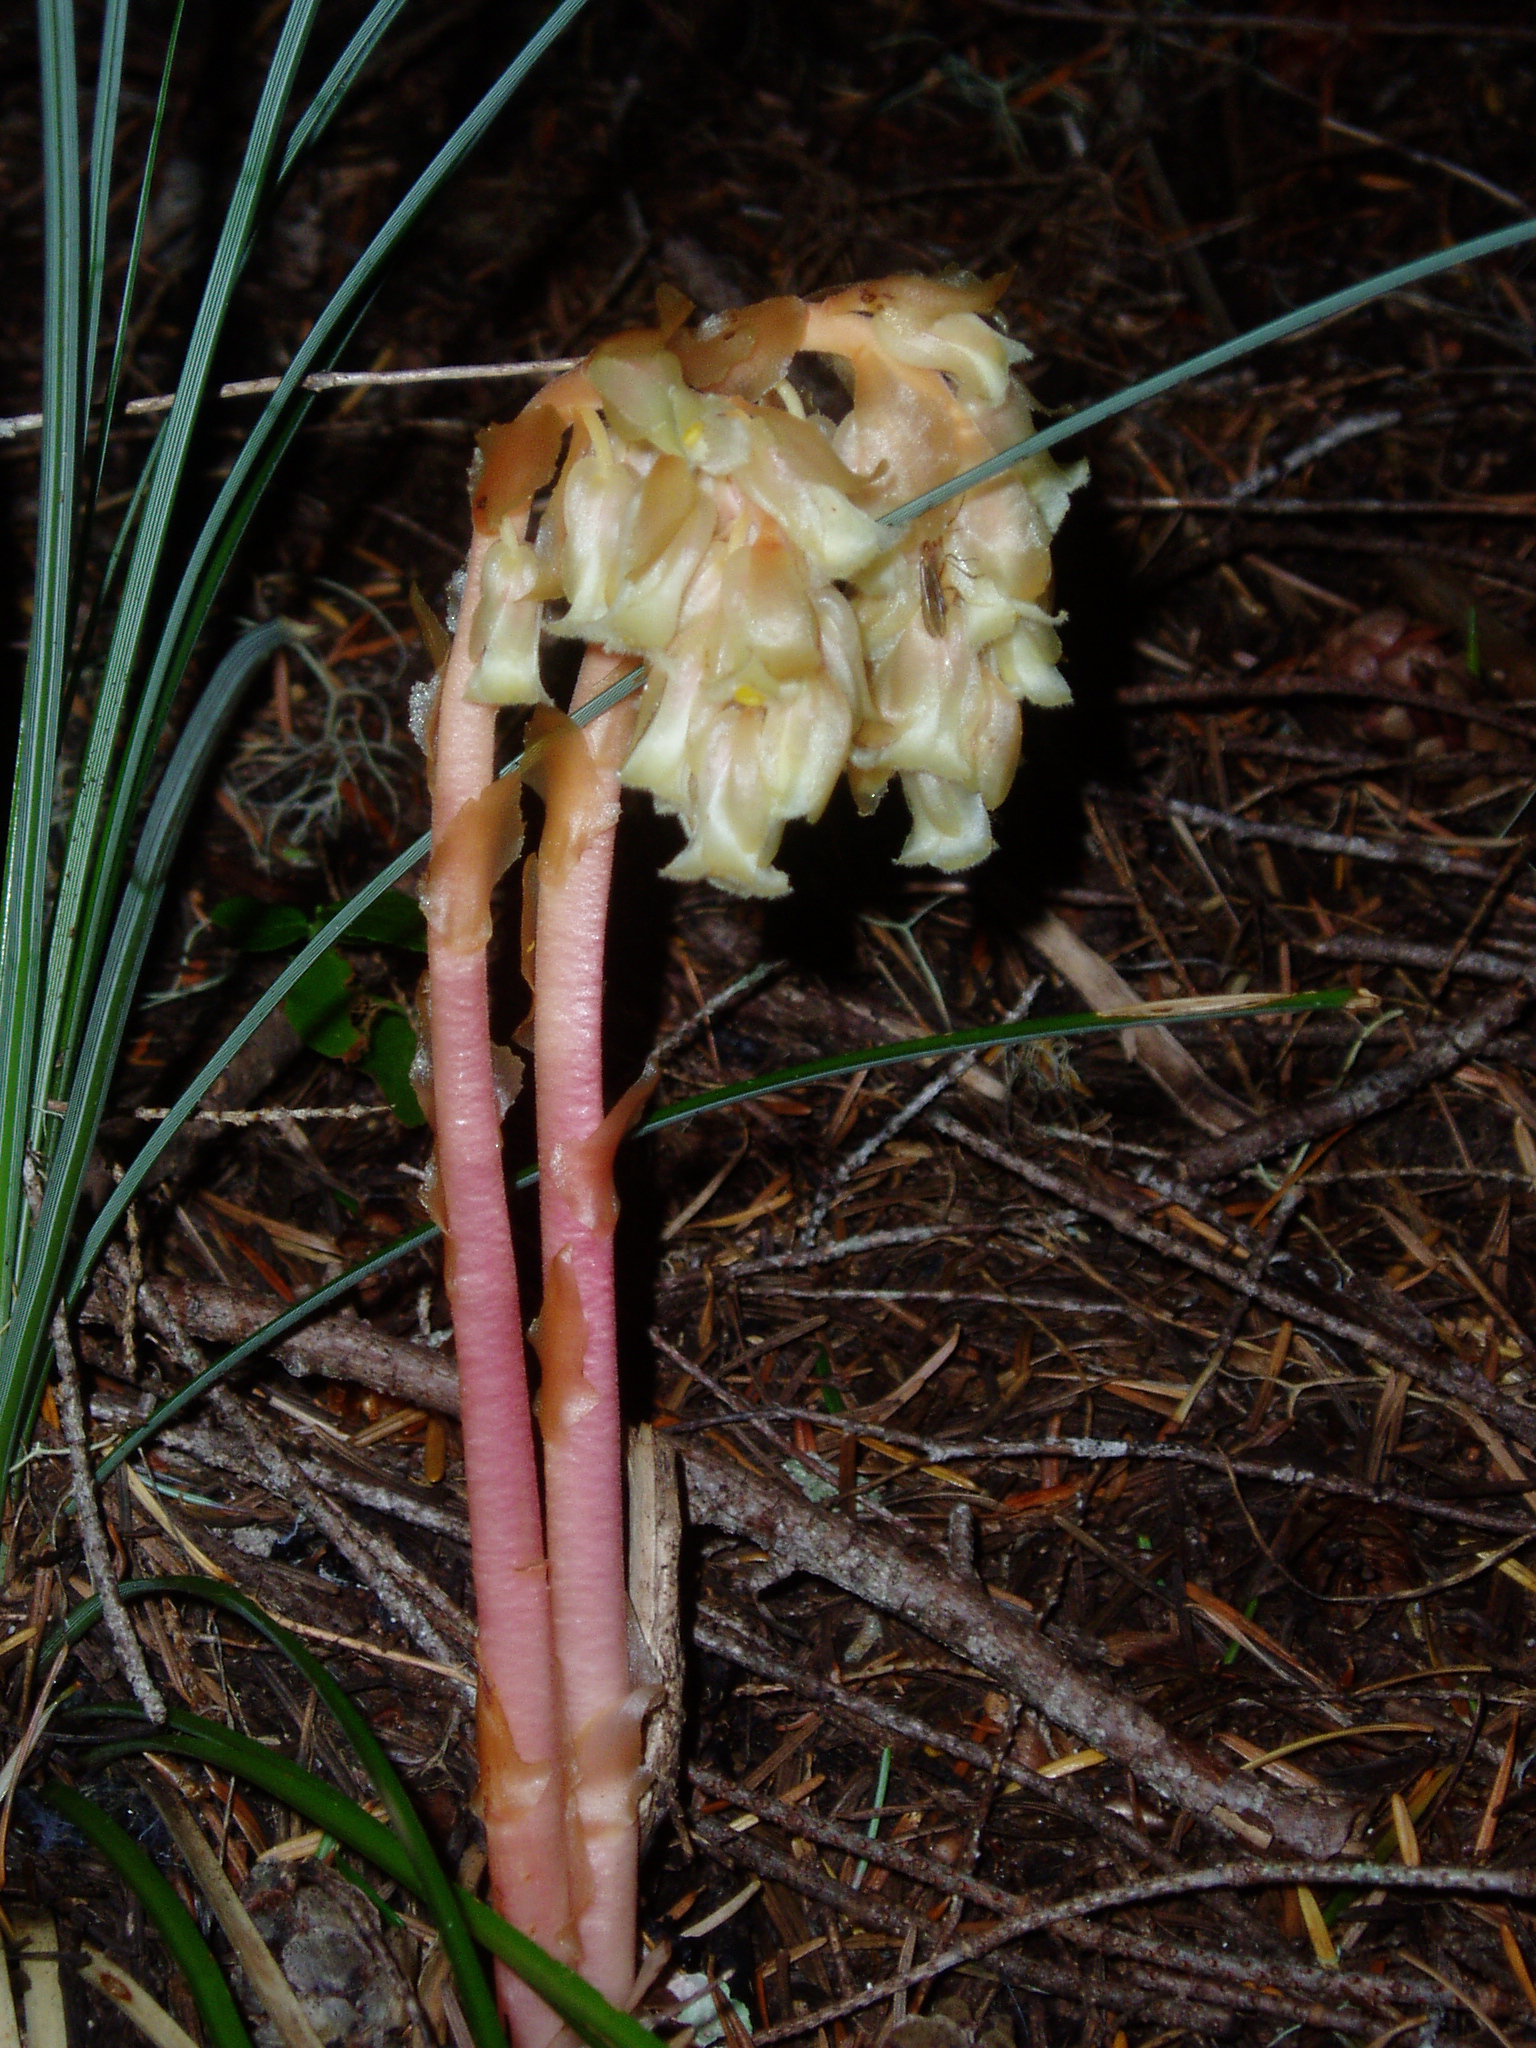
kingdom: Plantae
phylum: Tracheophyta
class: Magnoliopsida
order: Ericales
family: Ericaceae
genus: Hypopitys
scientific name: Hypopitys monotropa
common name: Yellow bird's-nest
